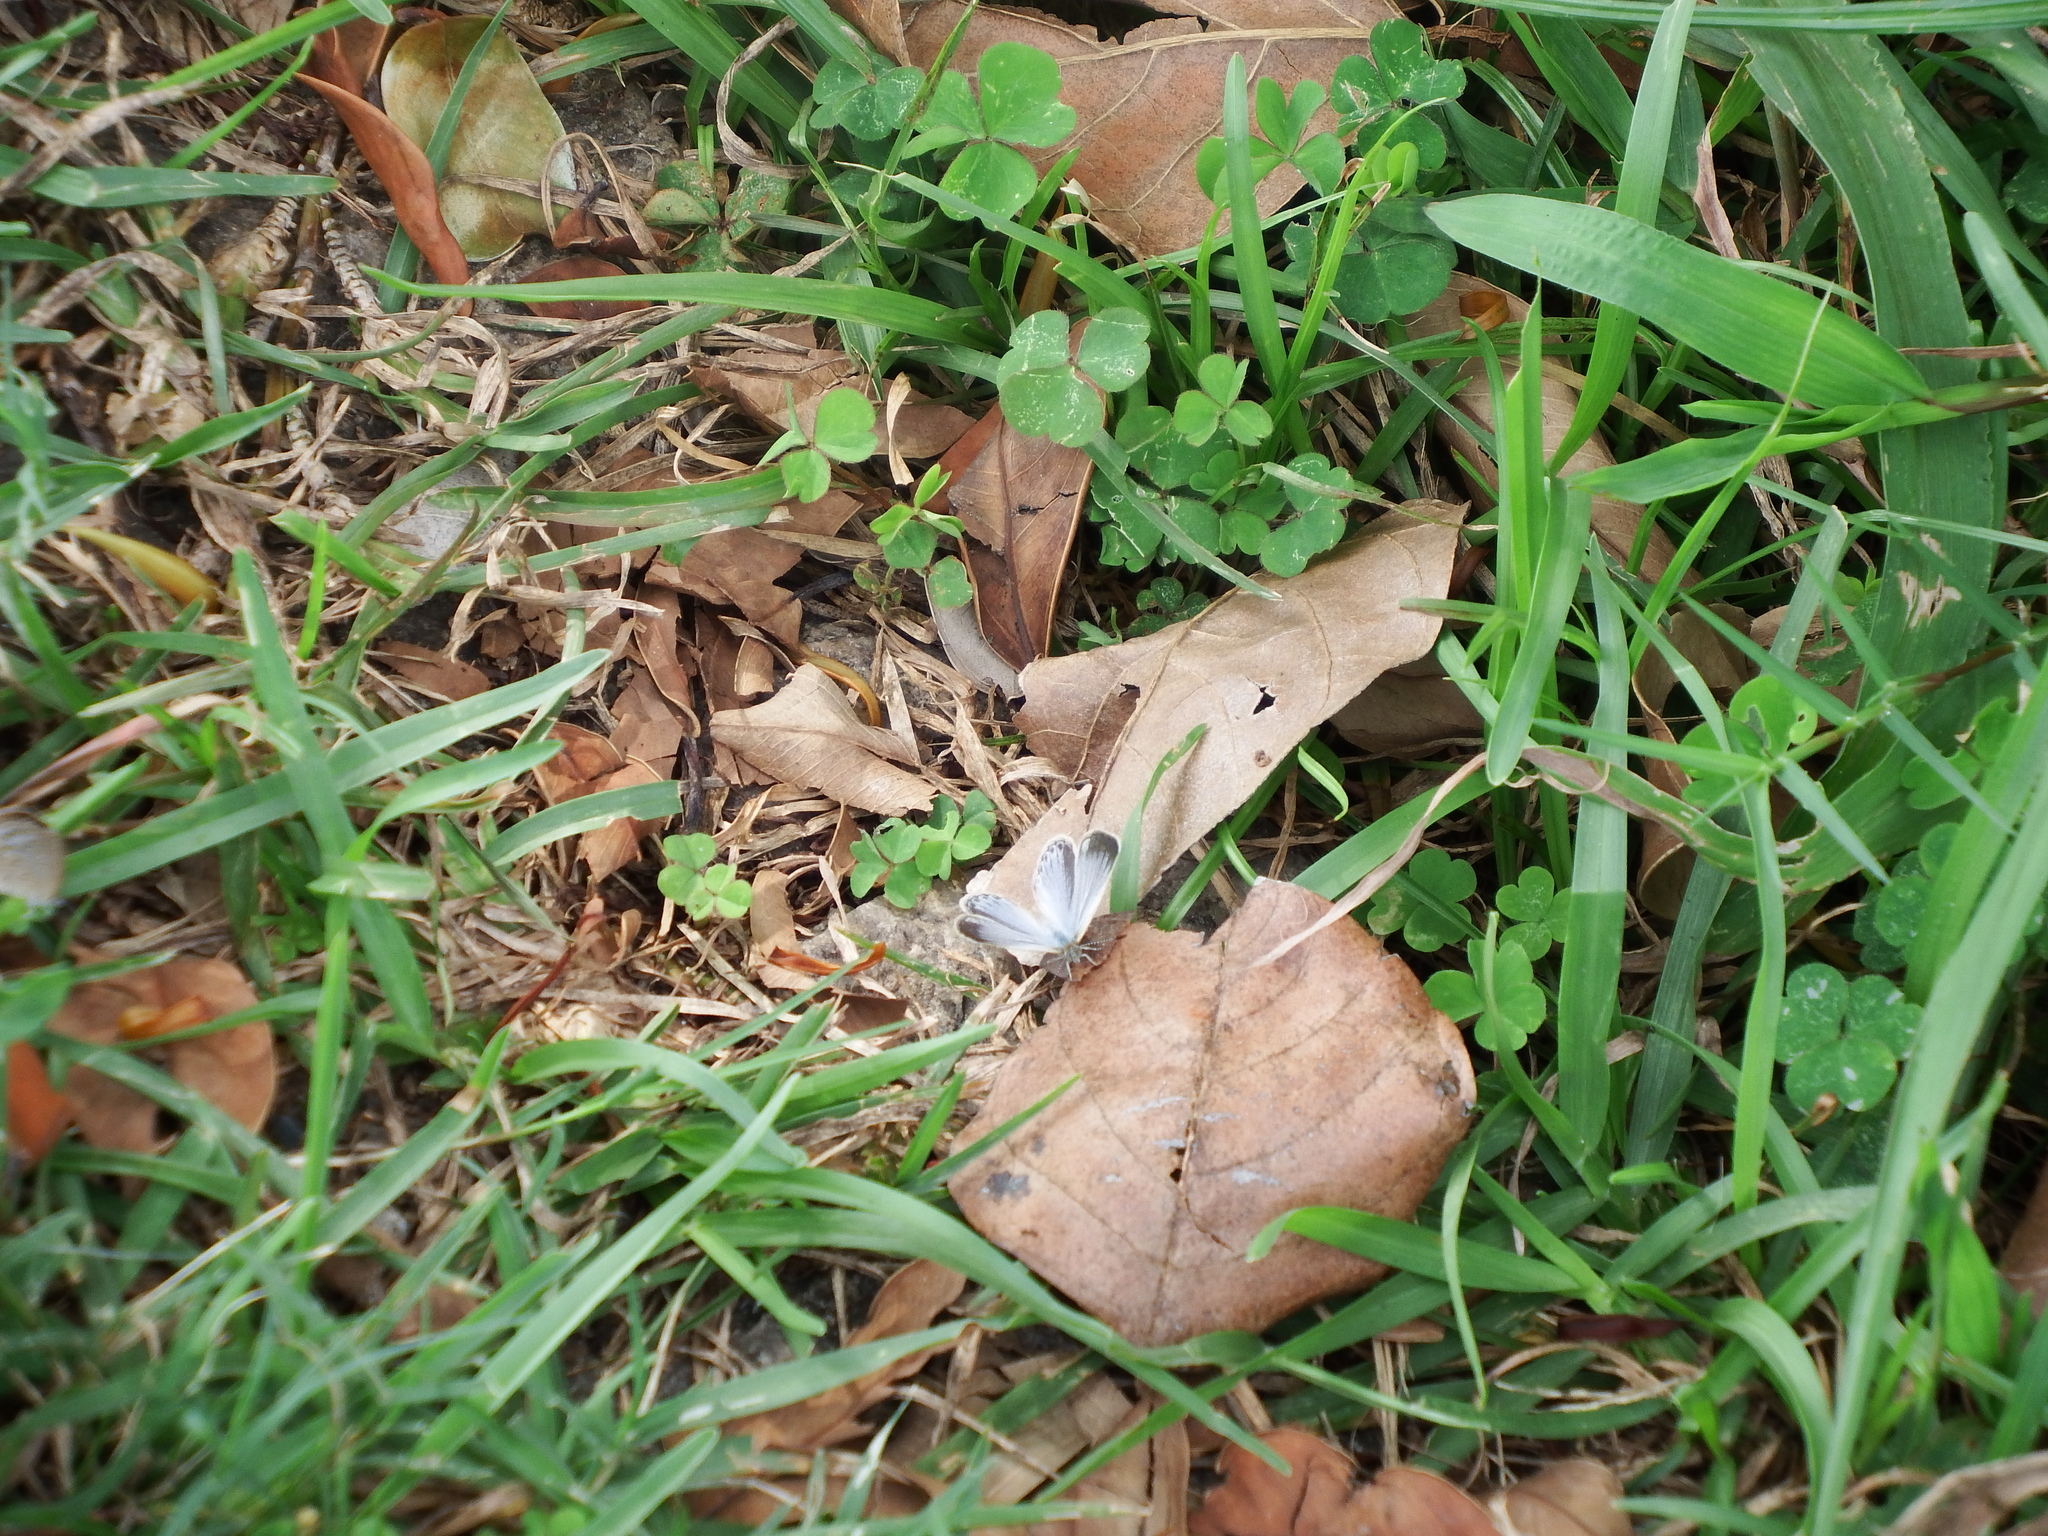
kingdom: Animalia
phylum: Arthropoda
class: Insecta
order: Lepidoptera
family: Lycaenidae
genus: Pseudozizeeria
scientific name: Pseudozizeeria maha
